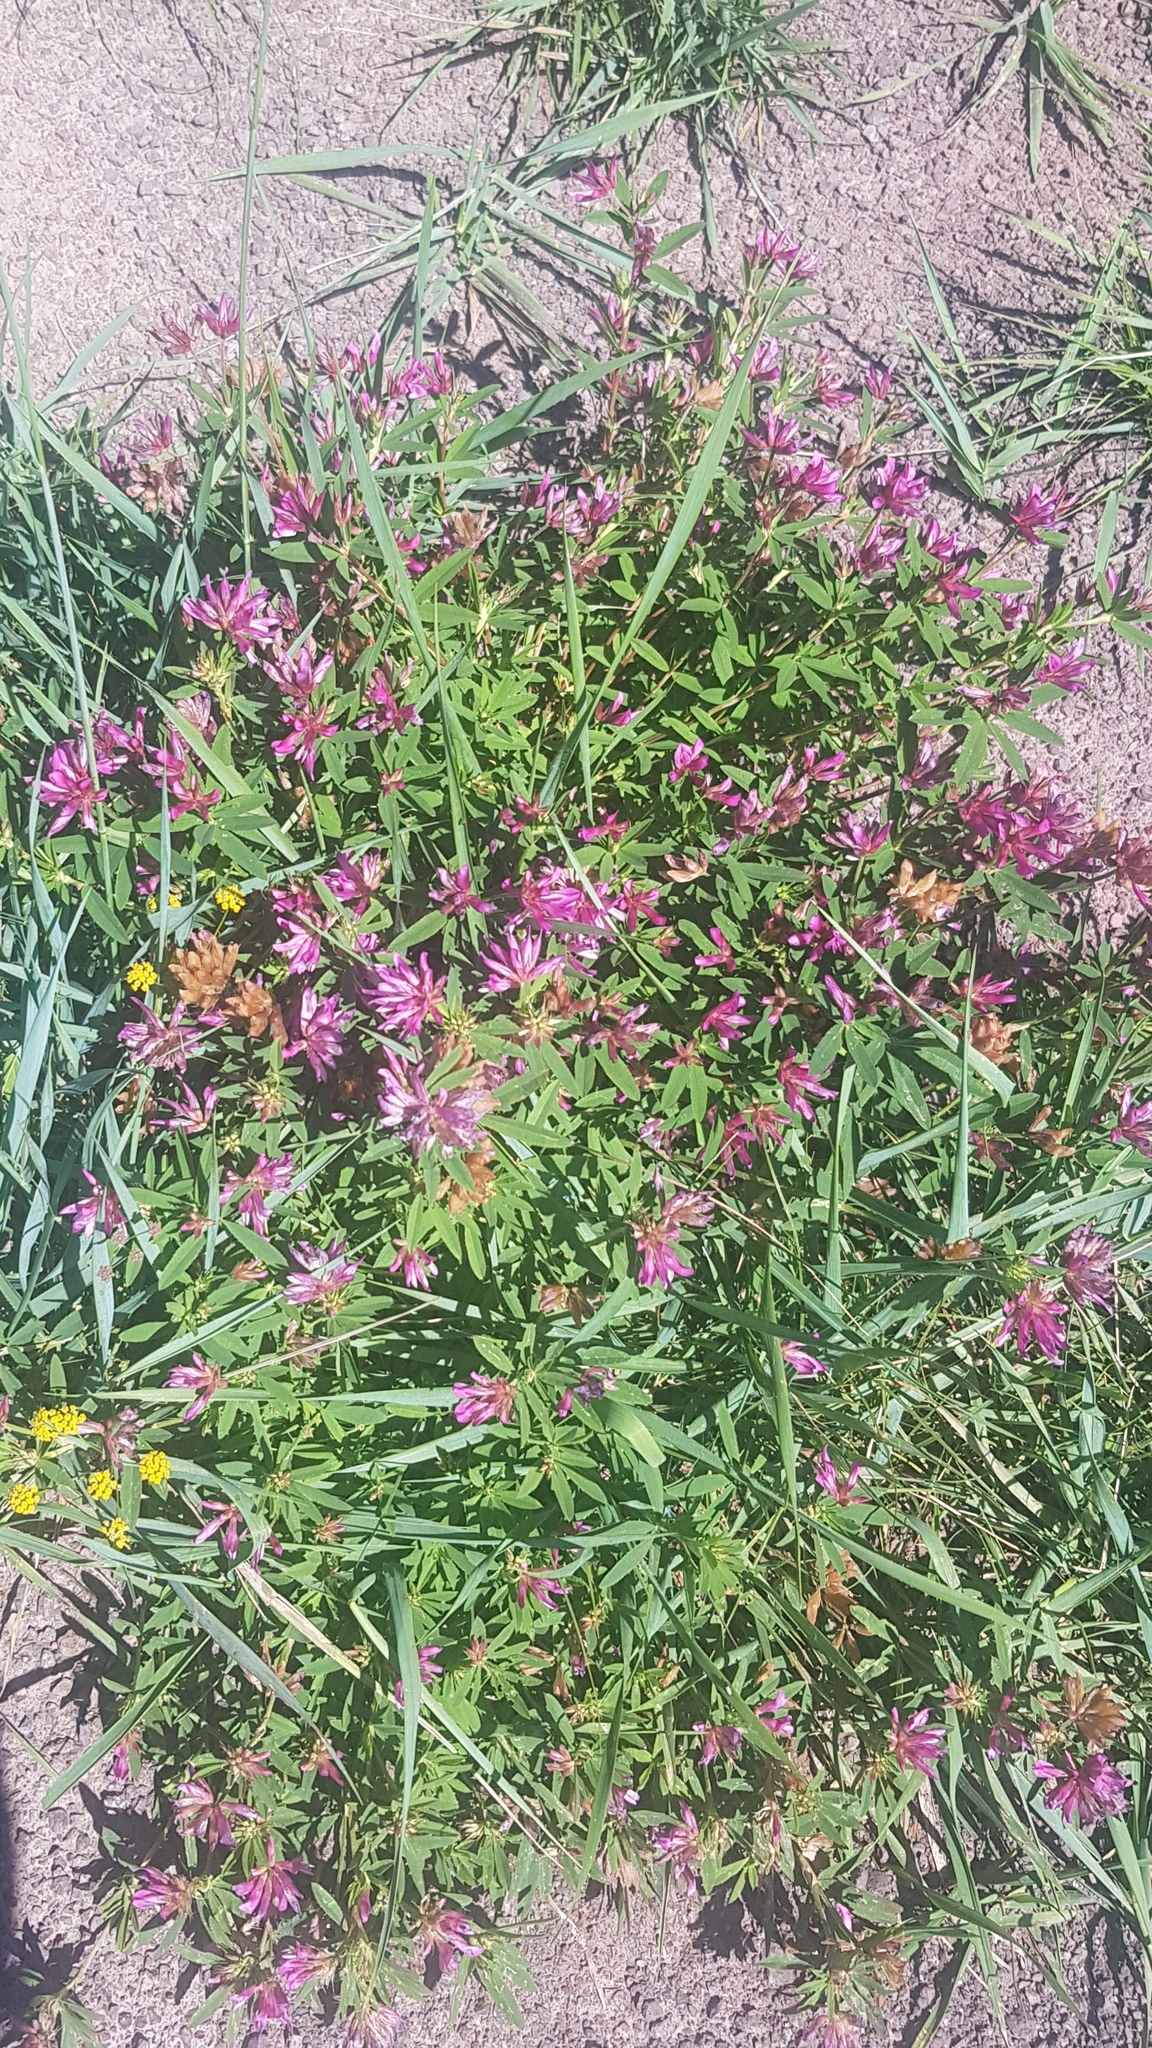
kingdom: Plantae
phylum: Tracheophyta
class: Magnoliopsida
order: Fabales
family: Fabaceae
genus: Trifolium
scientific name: Trifolium lupinaster
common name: Lupine clover
